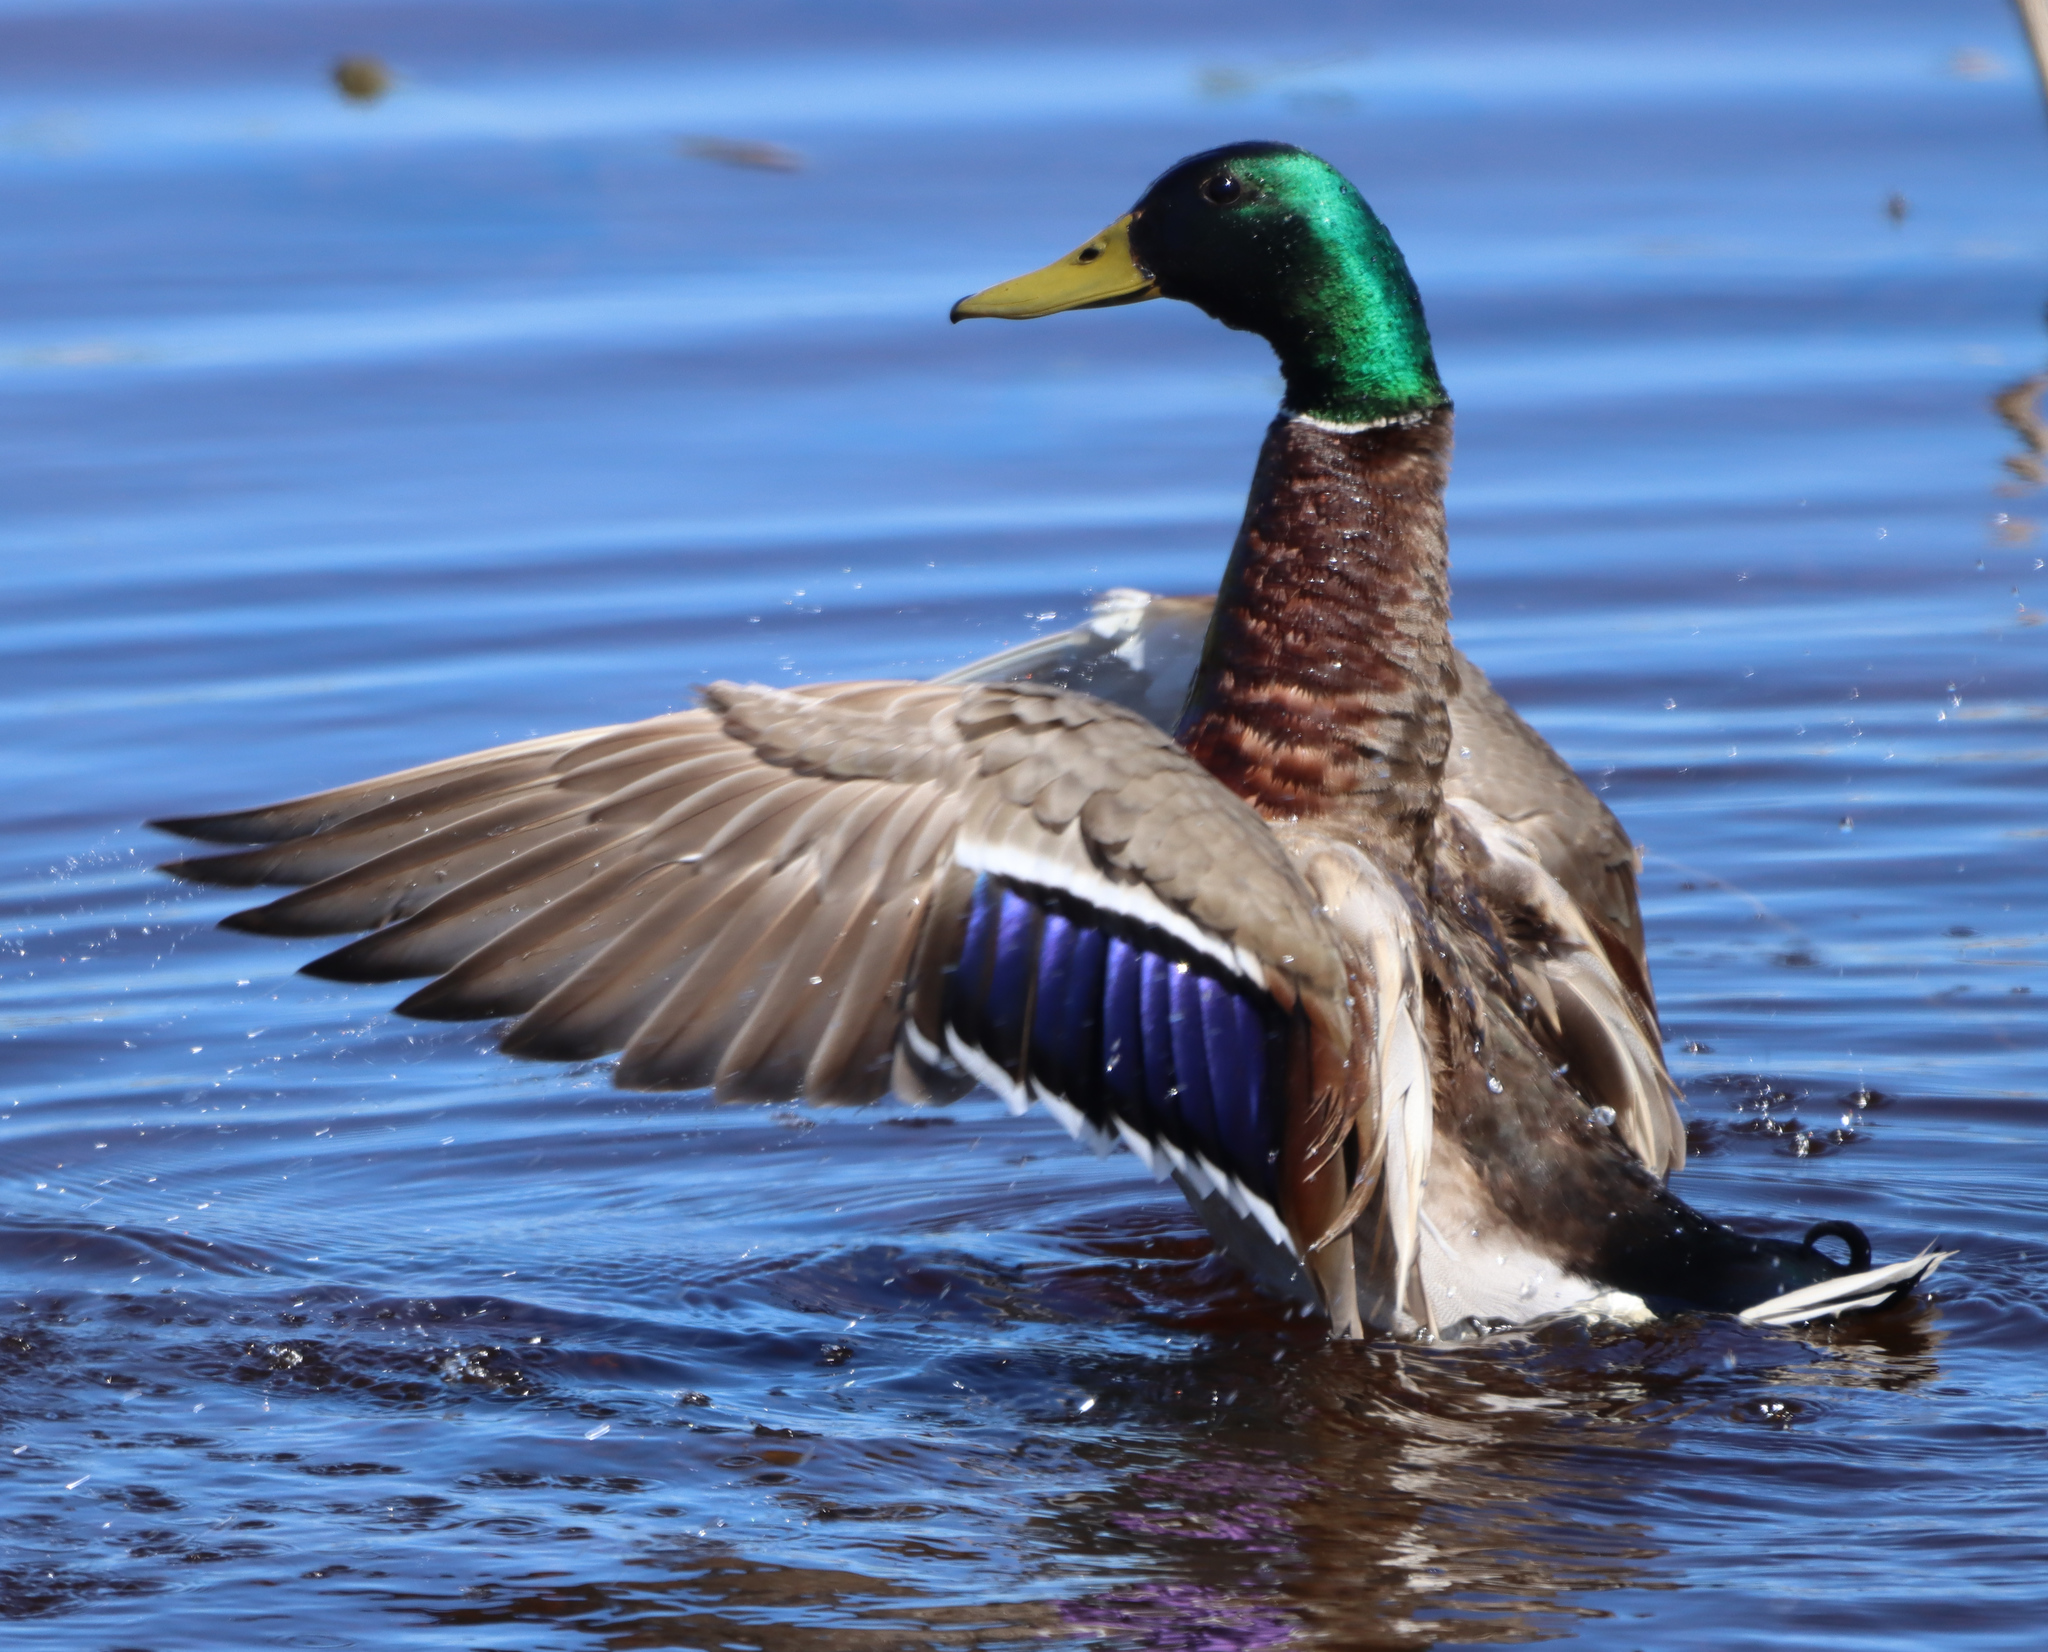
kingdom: Animalia
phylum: Chordata
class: Aves
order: Anseriformes
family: Anatidae
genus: Anas
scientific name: Anas platyrhynchos
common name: Mallard
